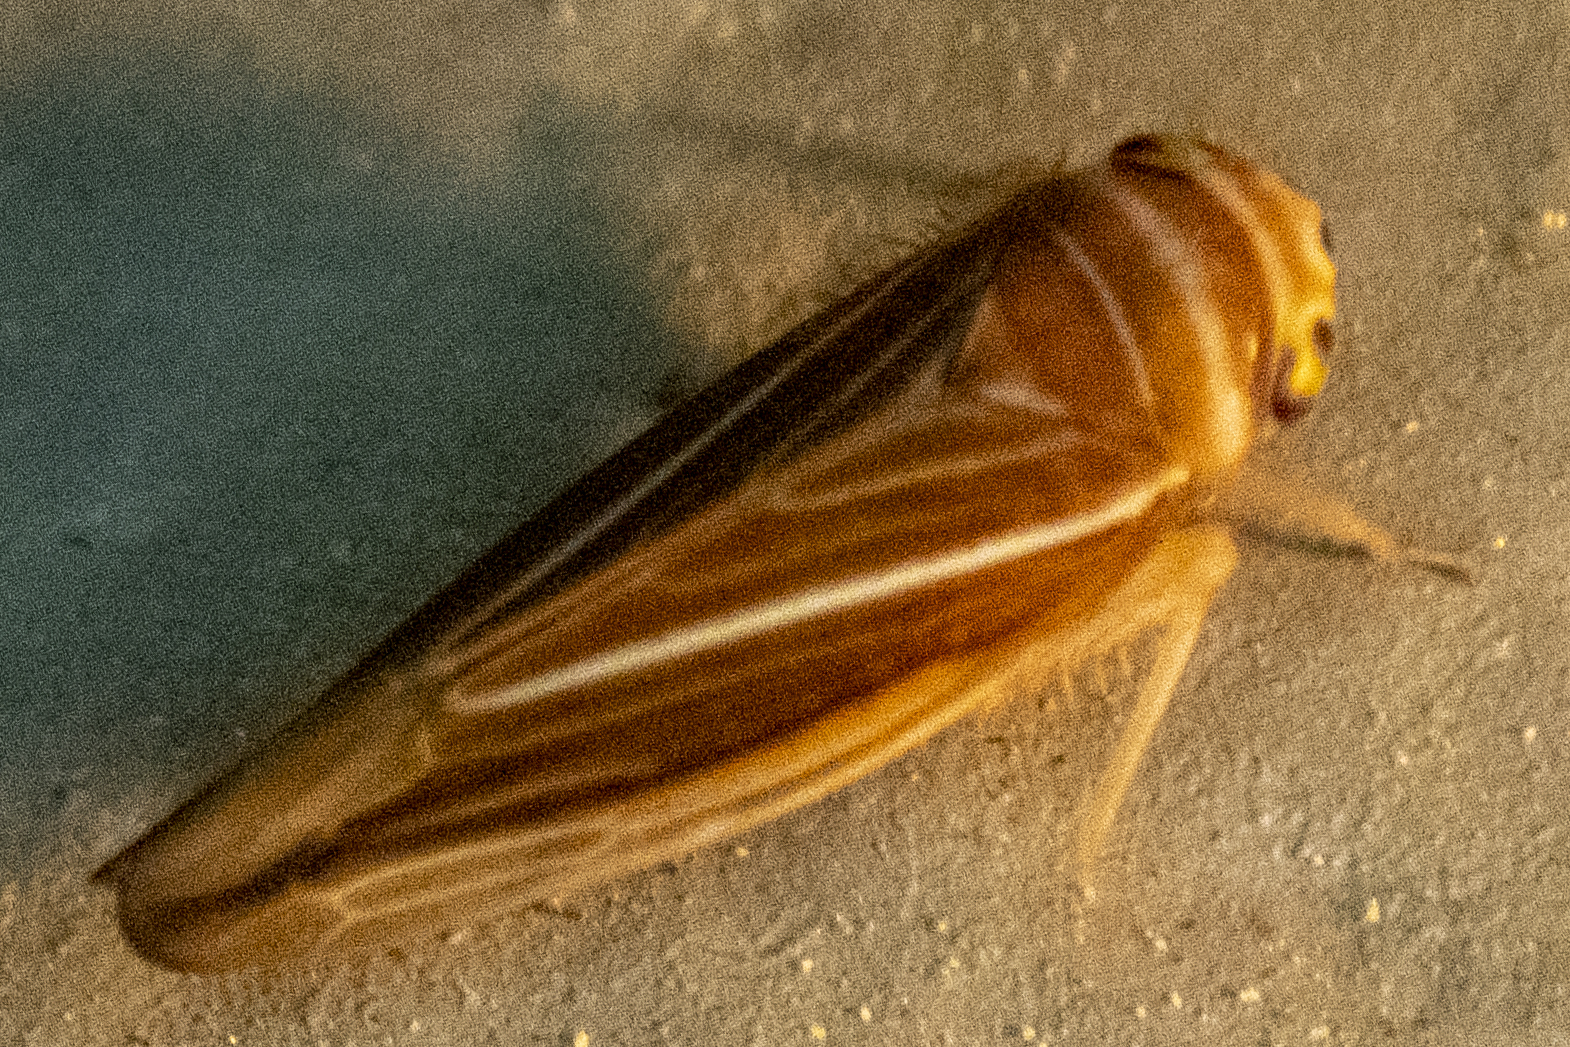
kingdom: Animalia
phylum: Arthropoda
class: Insecta
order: Hemiptera
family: Cicadellidae
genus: Idiodonus
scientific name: Idiodonus kennicotti
